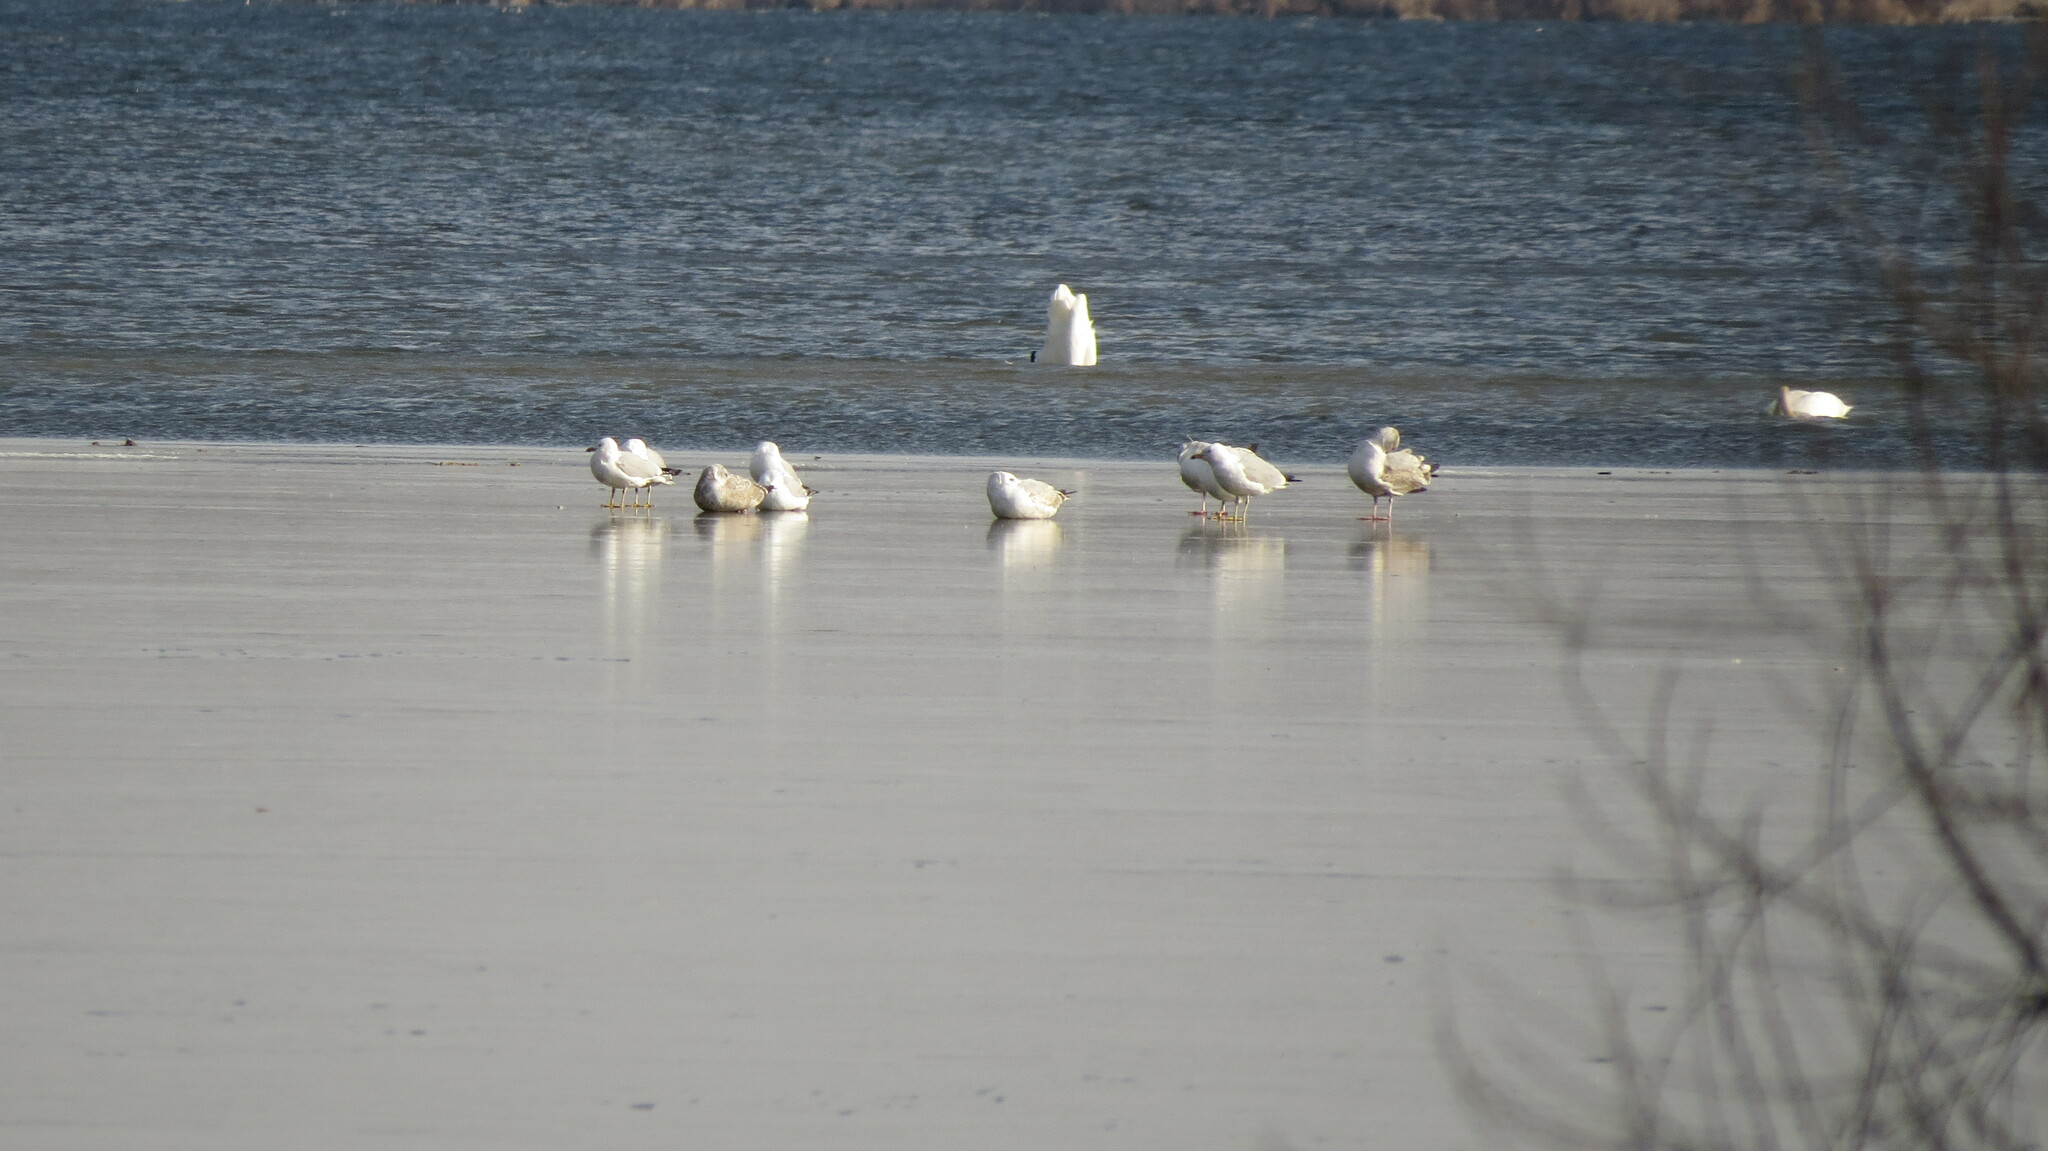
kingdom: Animalia
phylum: Chordata
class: Aves
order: Charadriiformes
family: Laridae
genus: Larus
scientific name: Larus smithsonianus
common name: American herring gull
